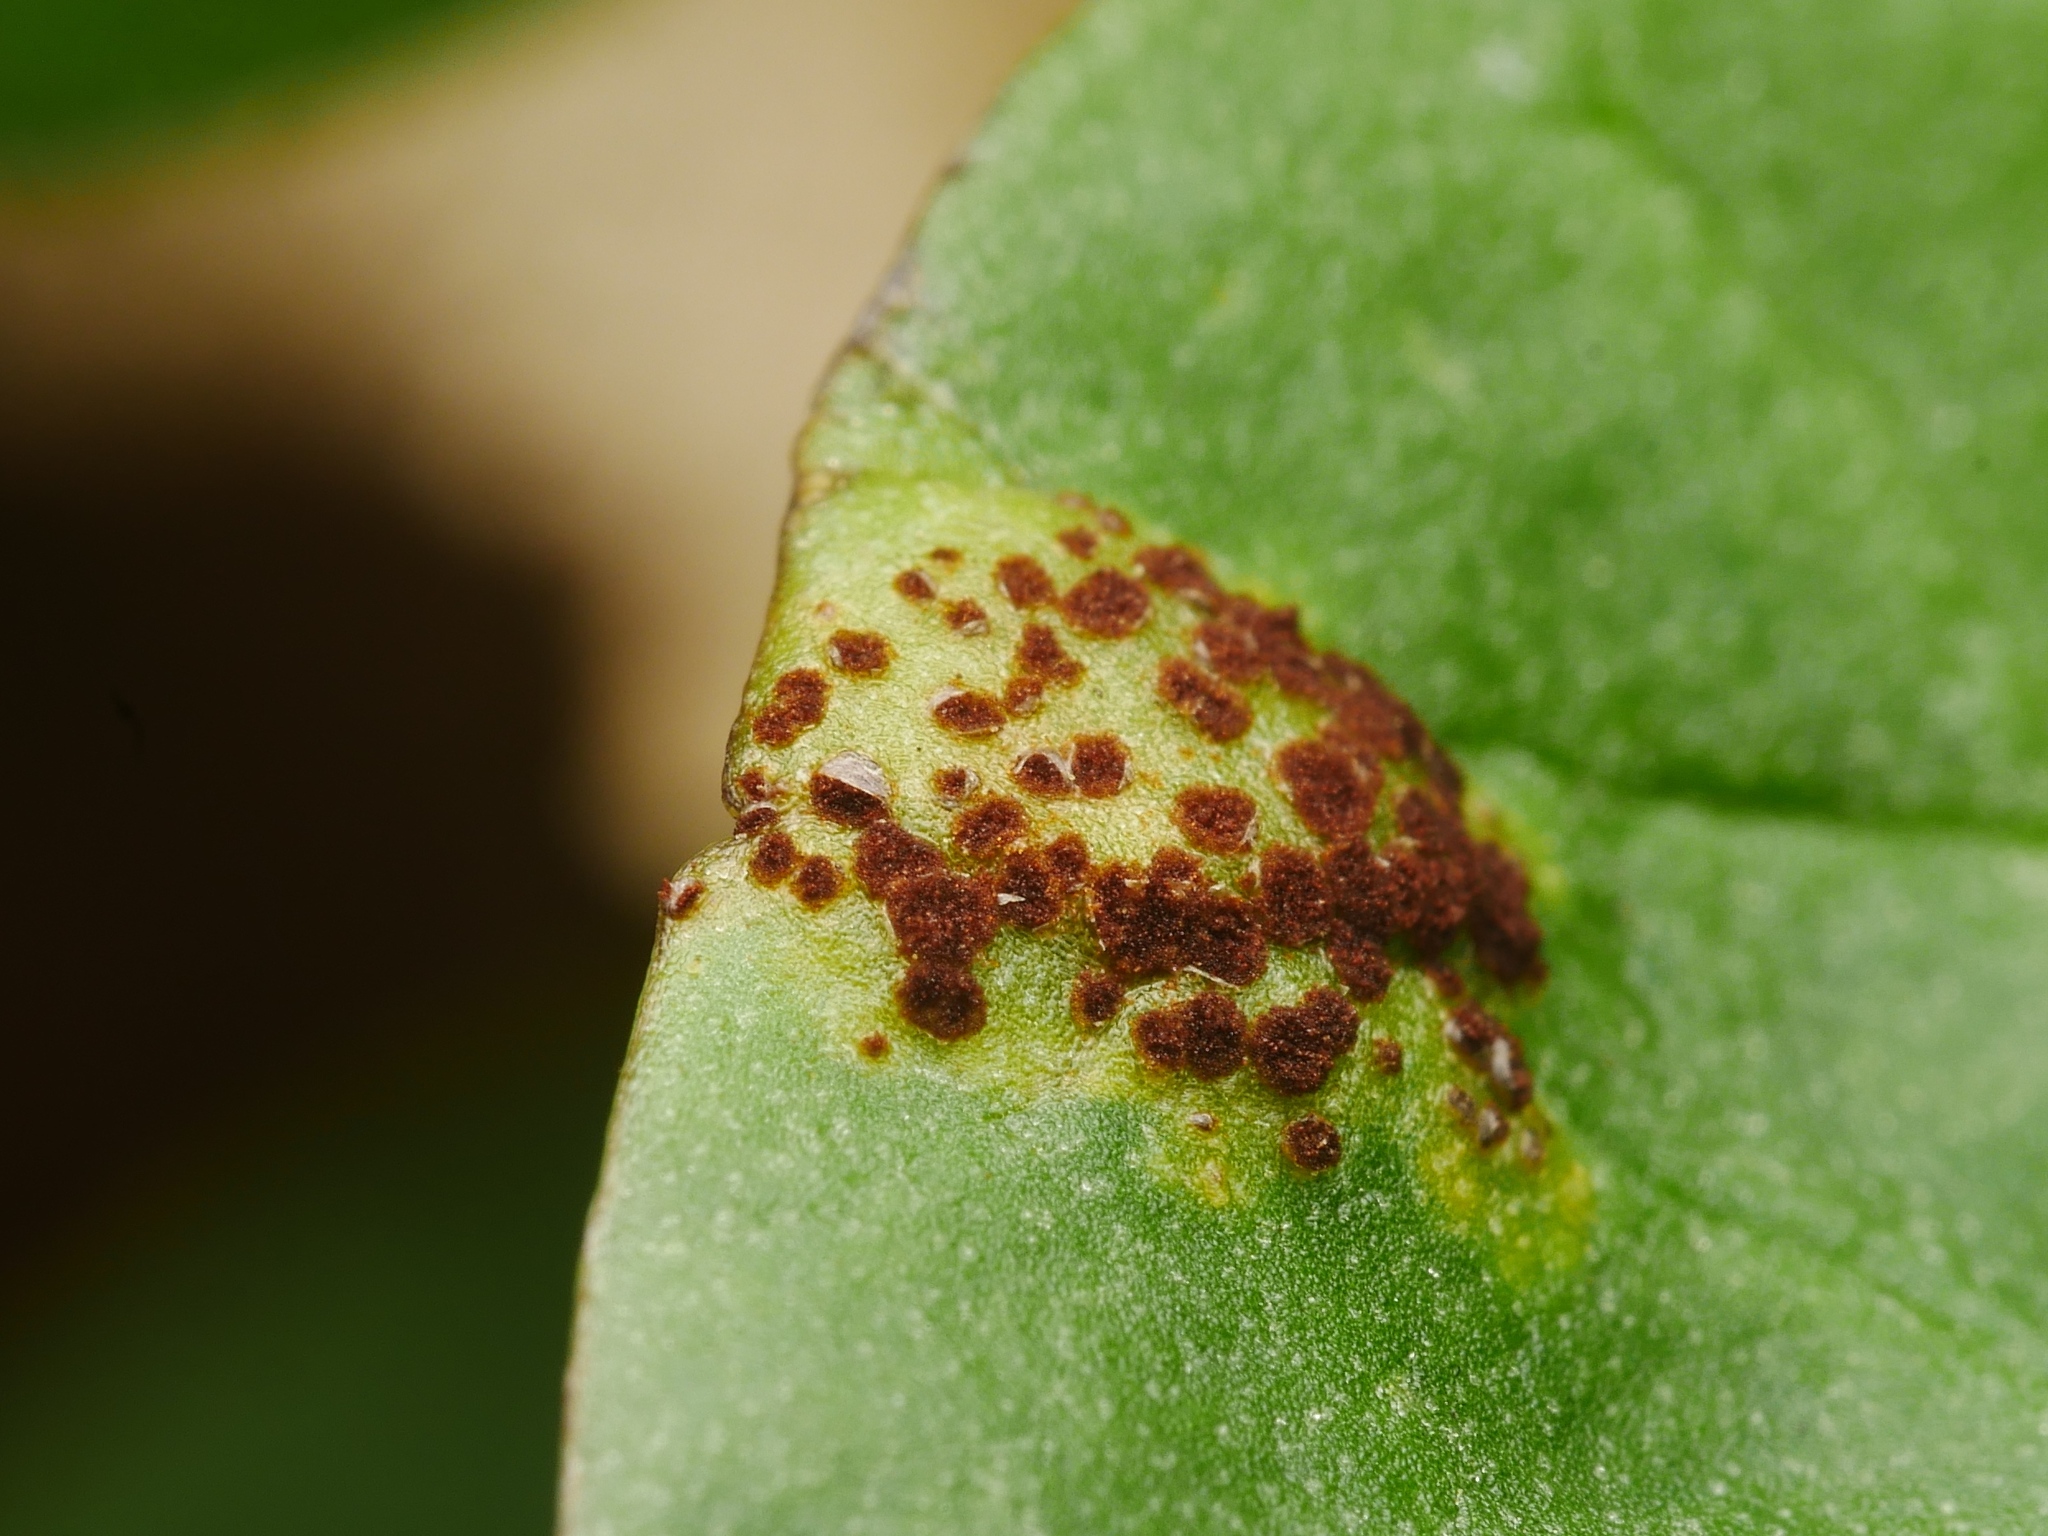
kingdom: Fungi
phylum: Basidiomycota
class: Pucciniomycetes
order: Pucciniales
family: Pucciniaceae
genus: Uromyces
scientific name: Uromyces ficariae
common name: Bitter chocolate rust
